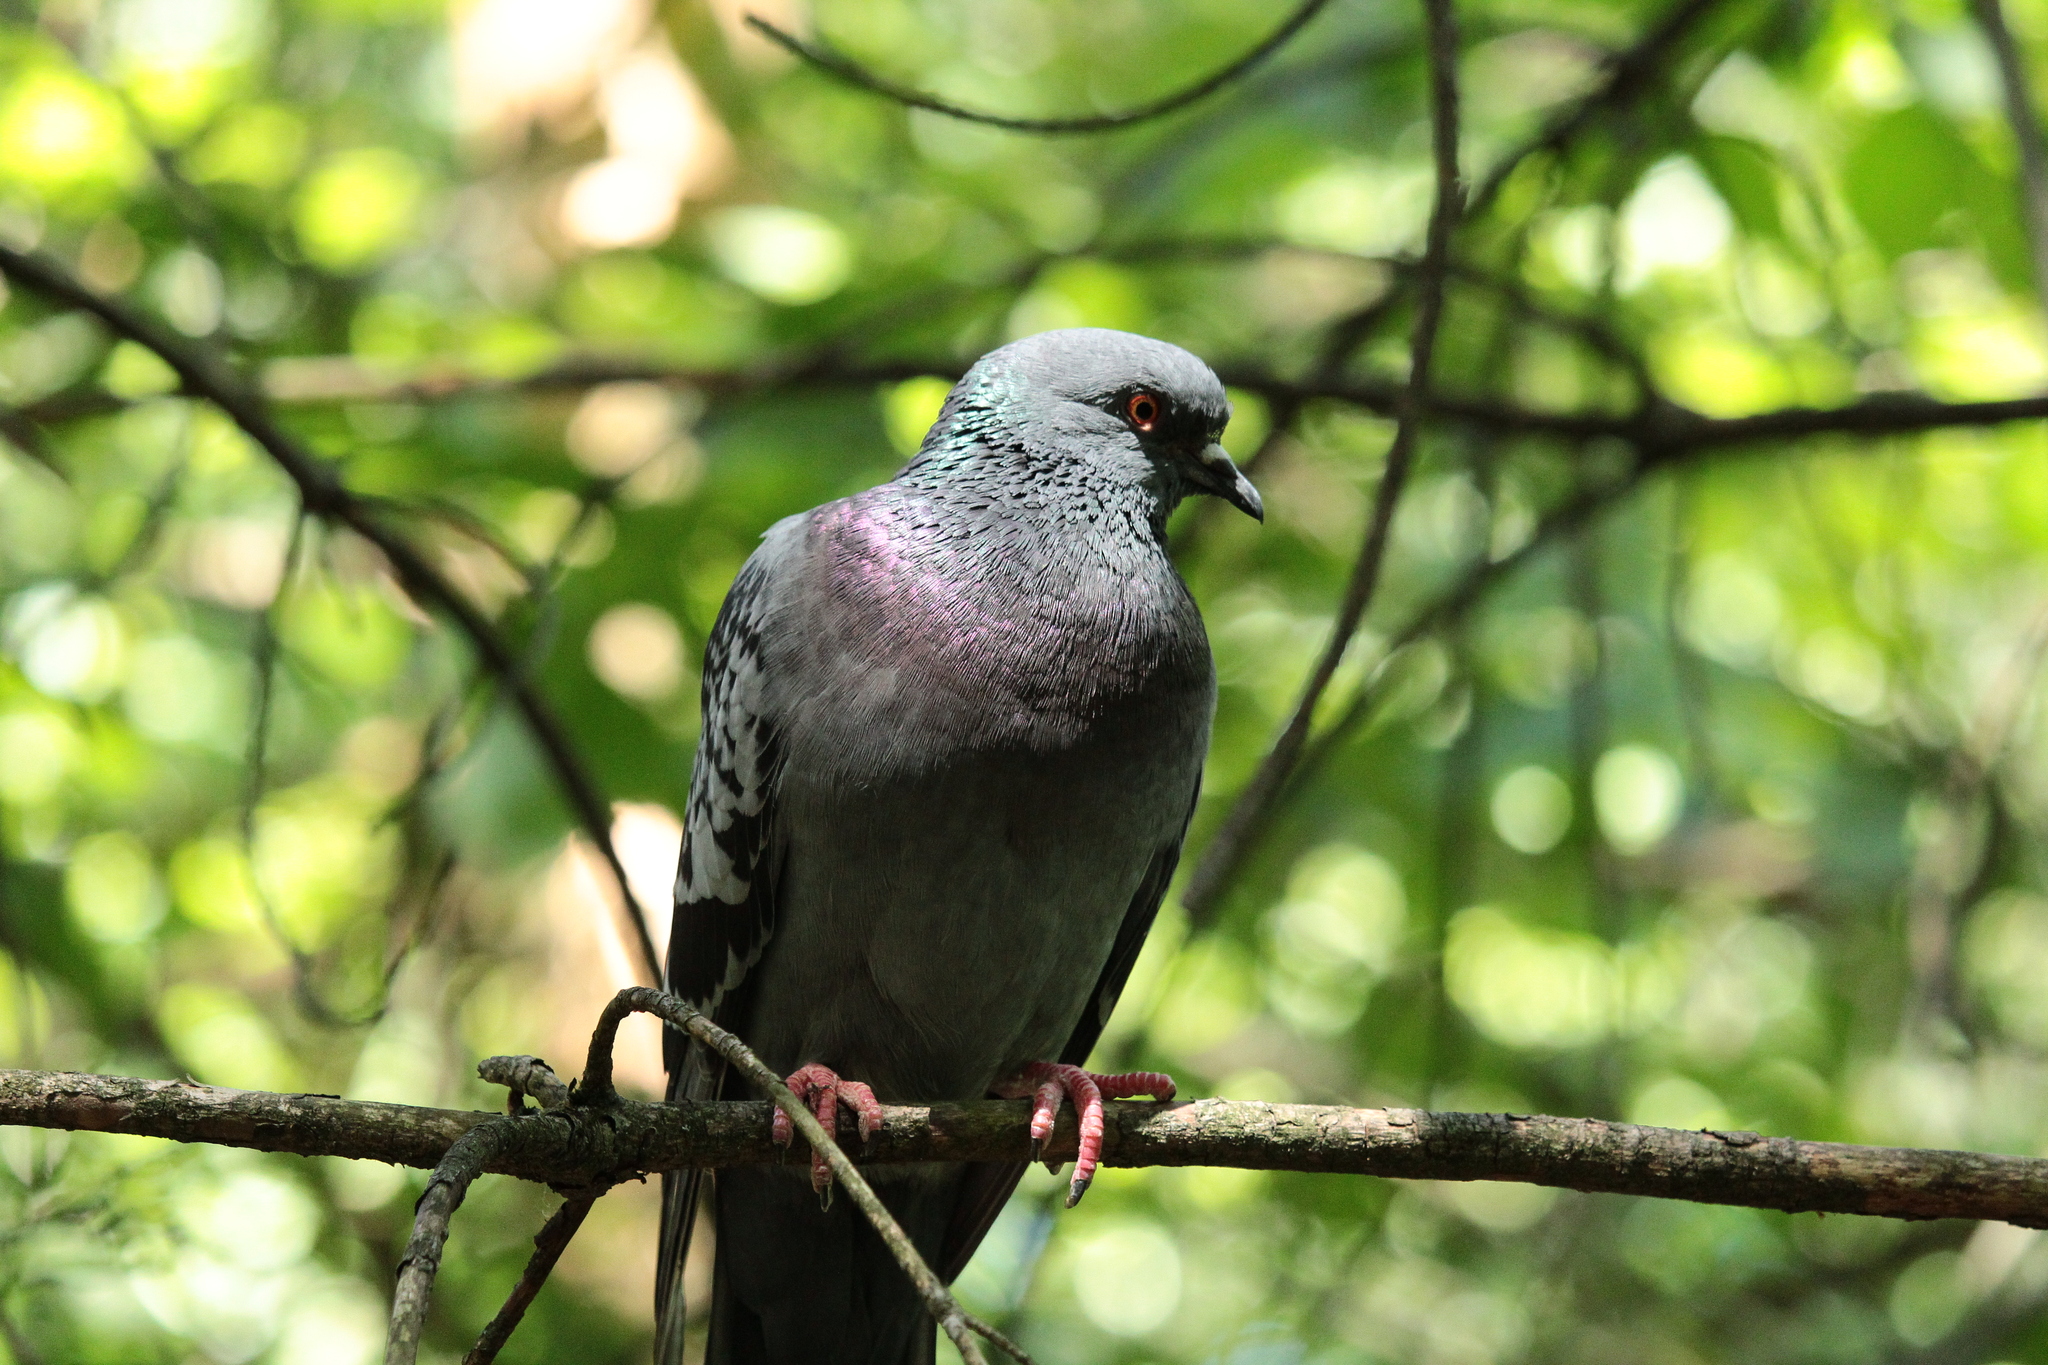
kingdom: Animalia
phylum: Chordata
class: Aves
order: Columbiformes
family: Columbidae
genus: Columba
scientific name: Columba livia
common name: Rock pigeon
